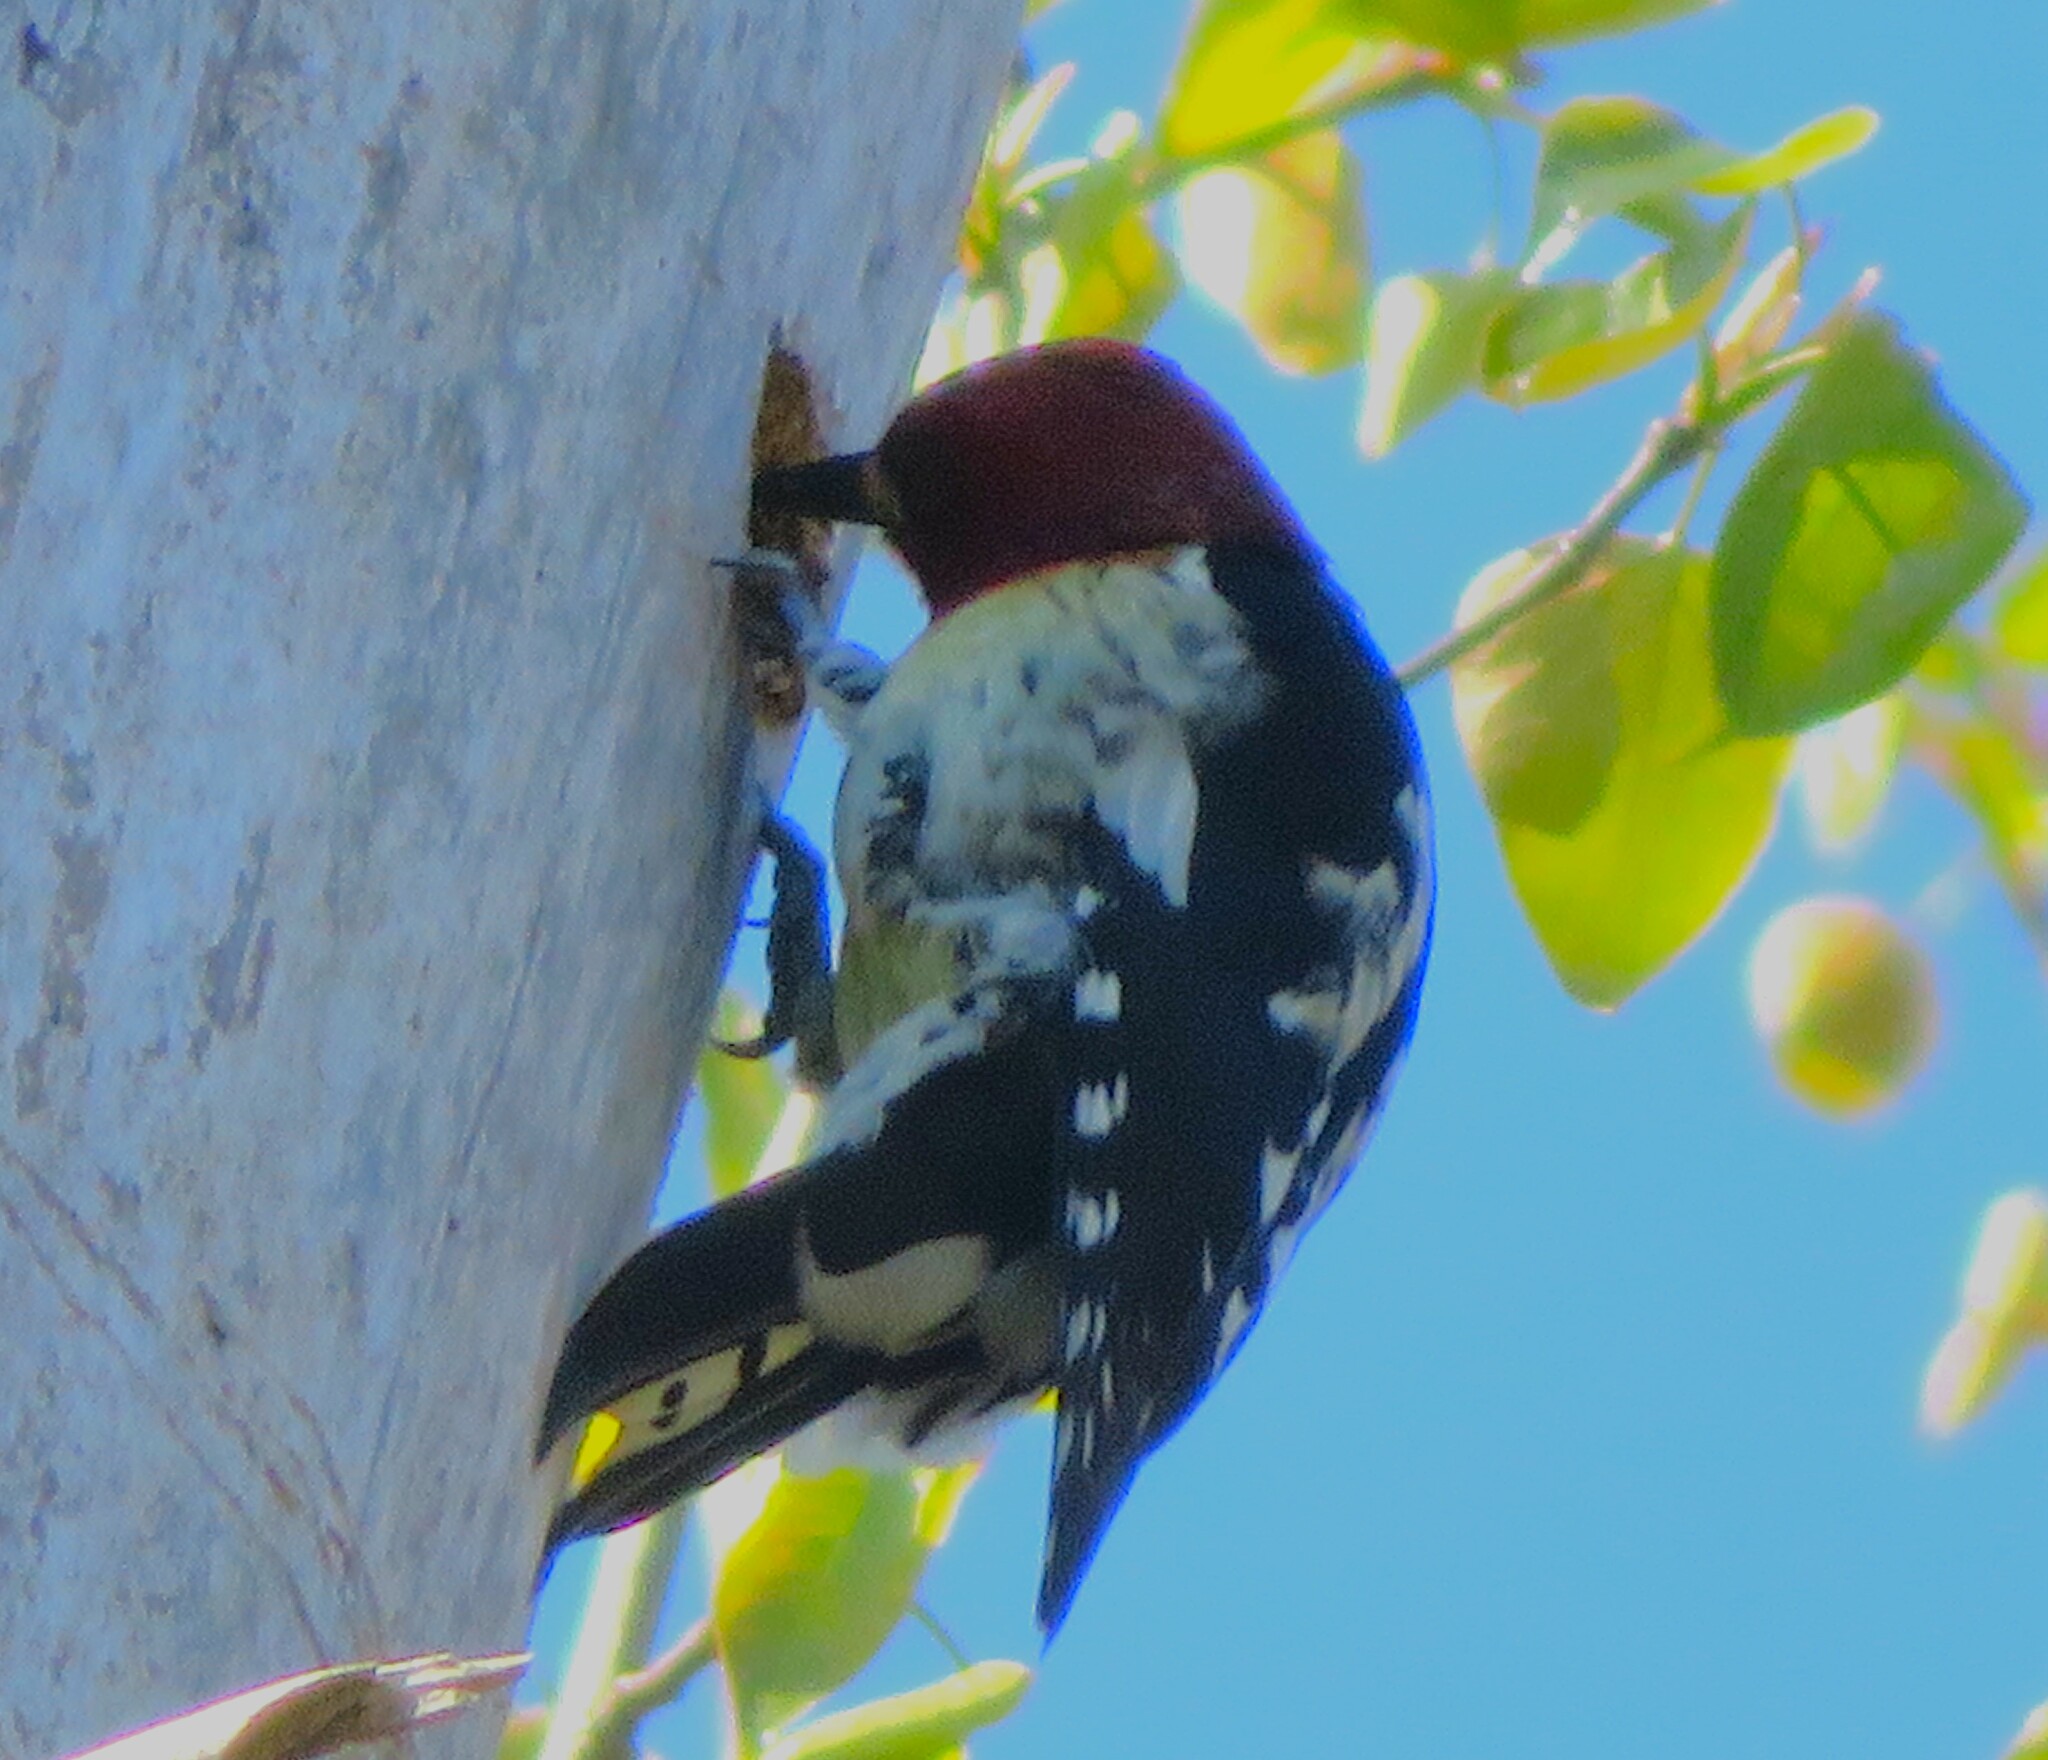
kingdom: Animalia
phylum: Chordata
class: Aves
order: Piciformes
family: Picidae
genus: Sphyrapicus
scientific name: Sphyrapicus ruber
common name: Red-breasted sapsucker
